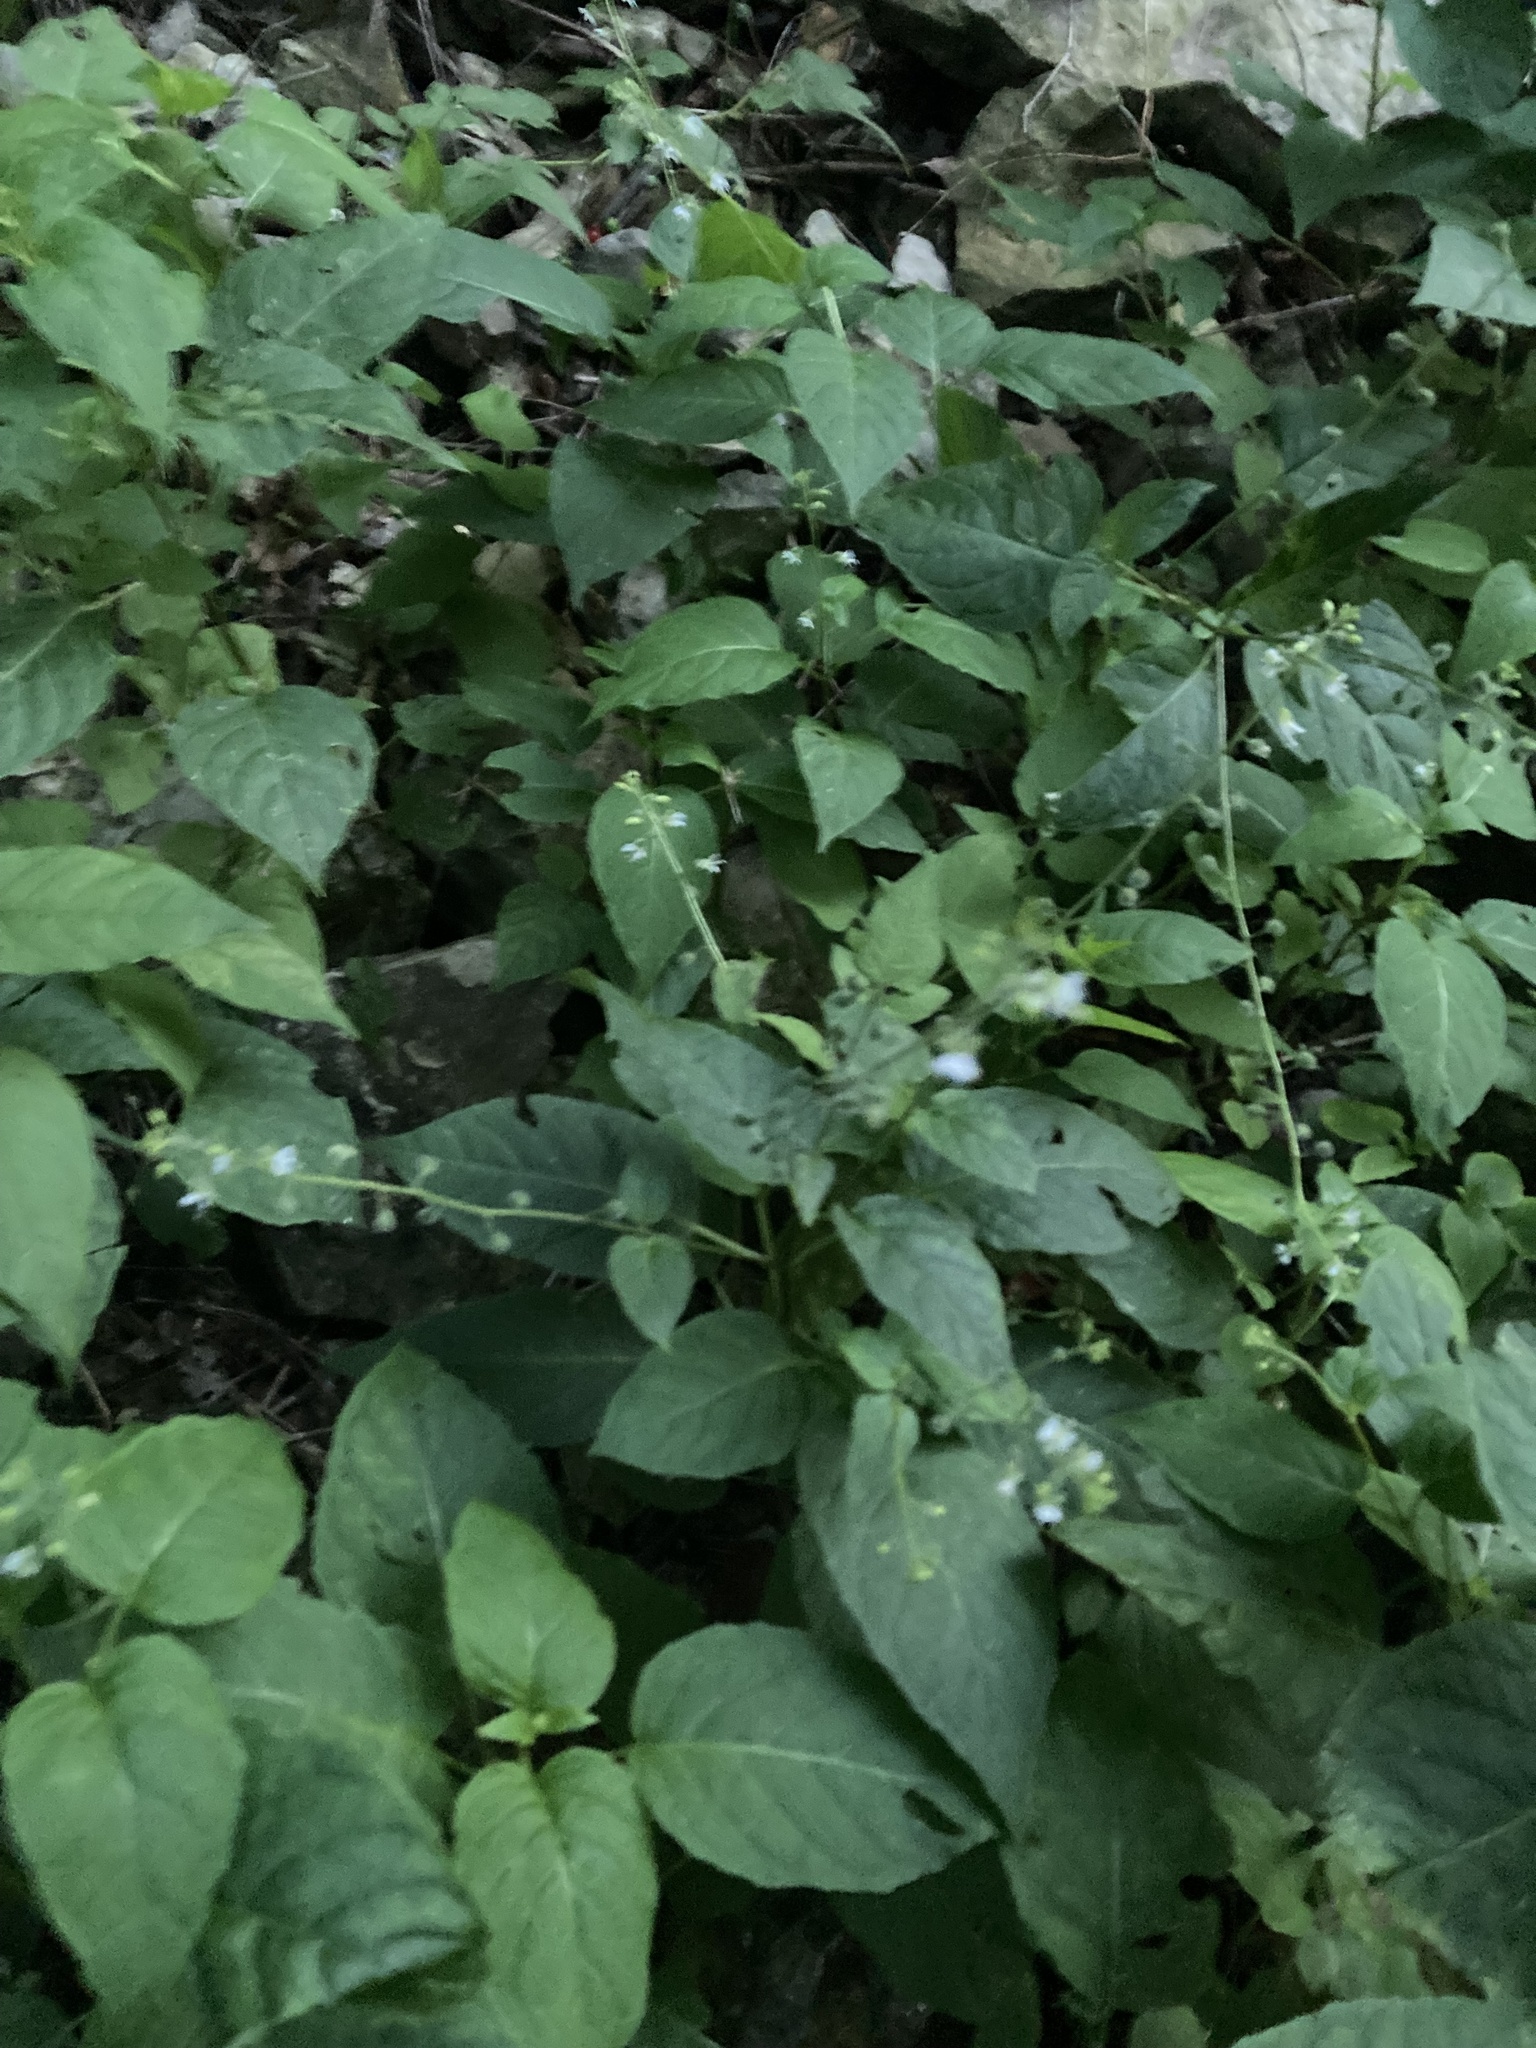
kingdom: Plantae
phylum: Tracheophyta
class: Magnoliopsida
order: Myrtales
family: Onagraceae
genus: Circaea
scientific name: Circaea canadensis
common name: Broad-leaved enchanter's nightshade
